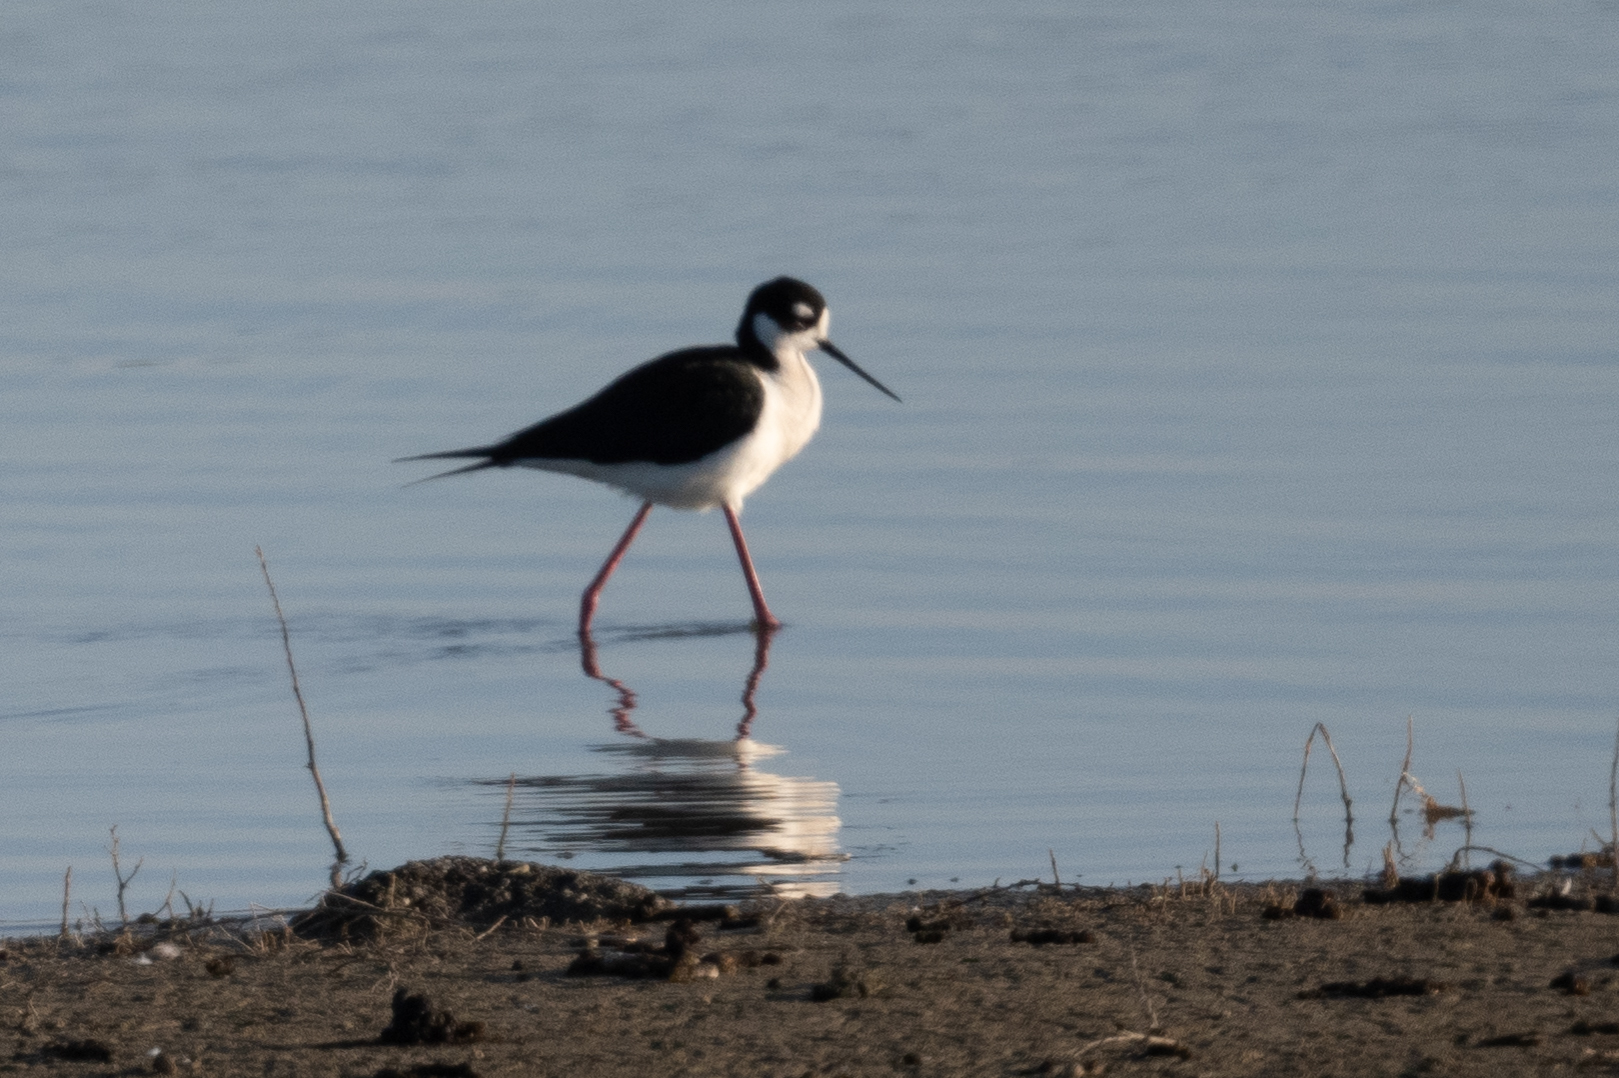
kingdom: Animalia
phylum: Chordata
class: Aves
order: Charadriiformes
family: Recurvirostridae
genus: Himantopus
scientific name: Himantopus mexicanus
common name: Black-necked stilt
